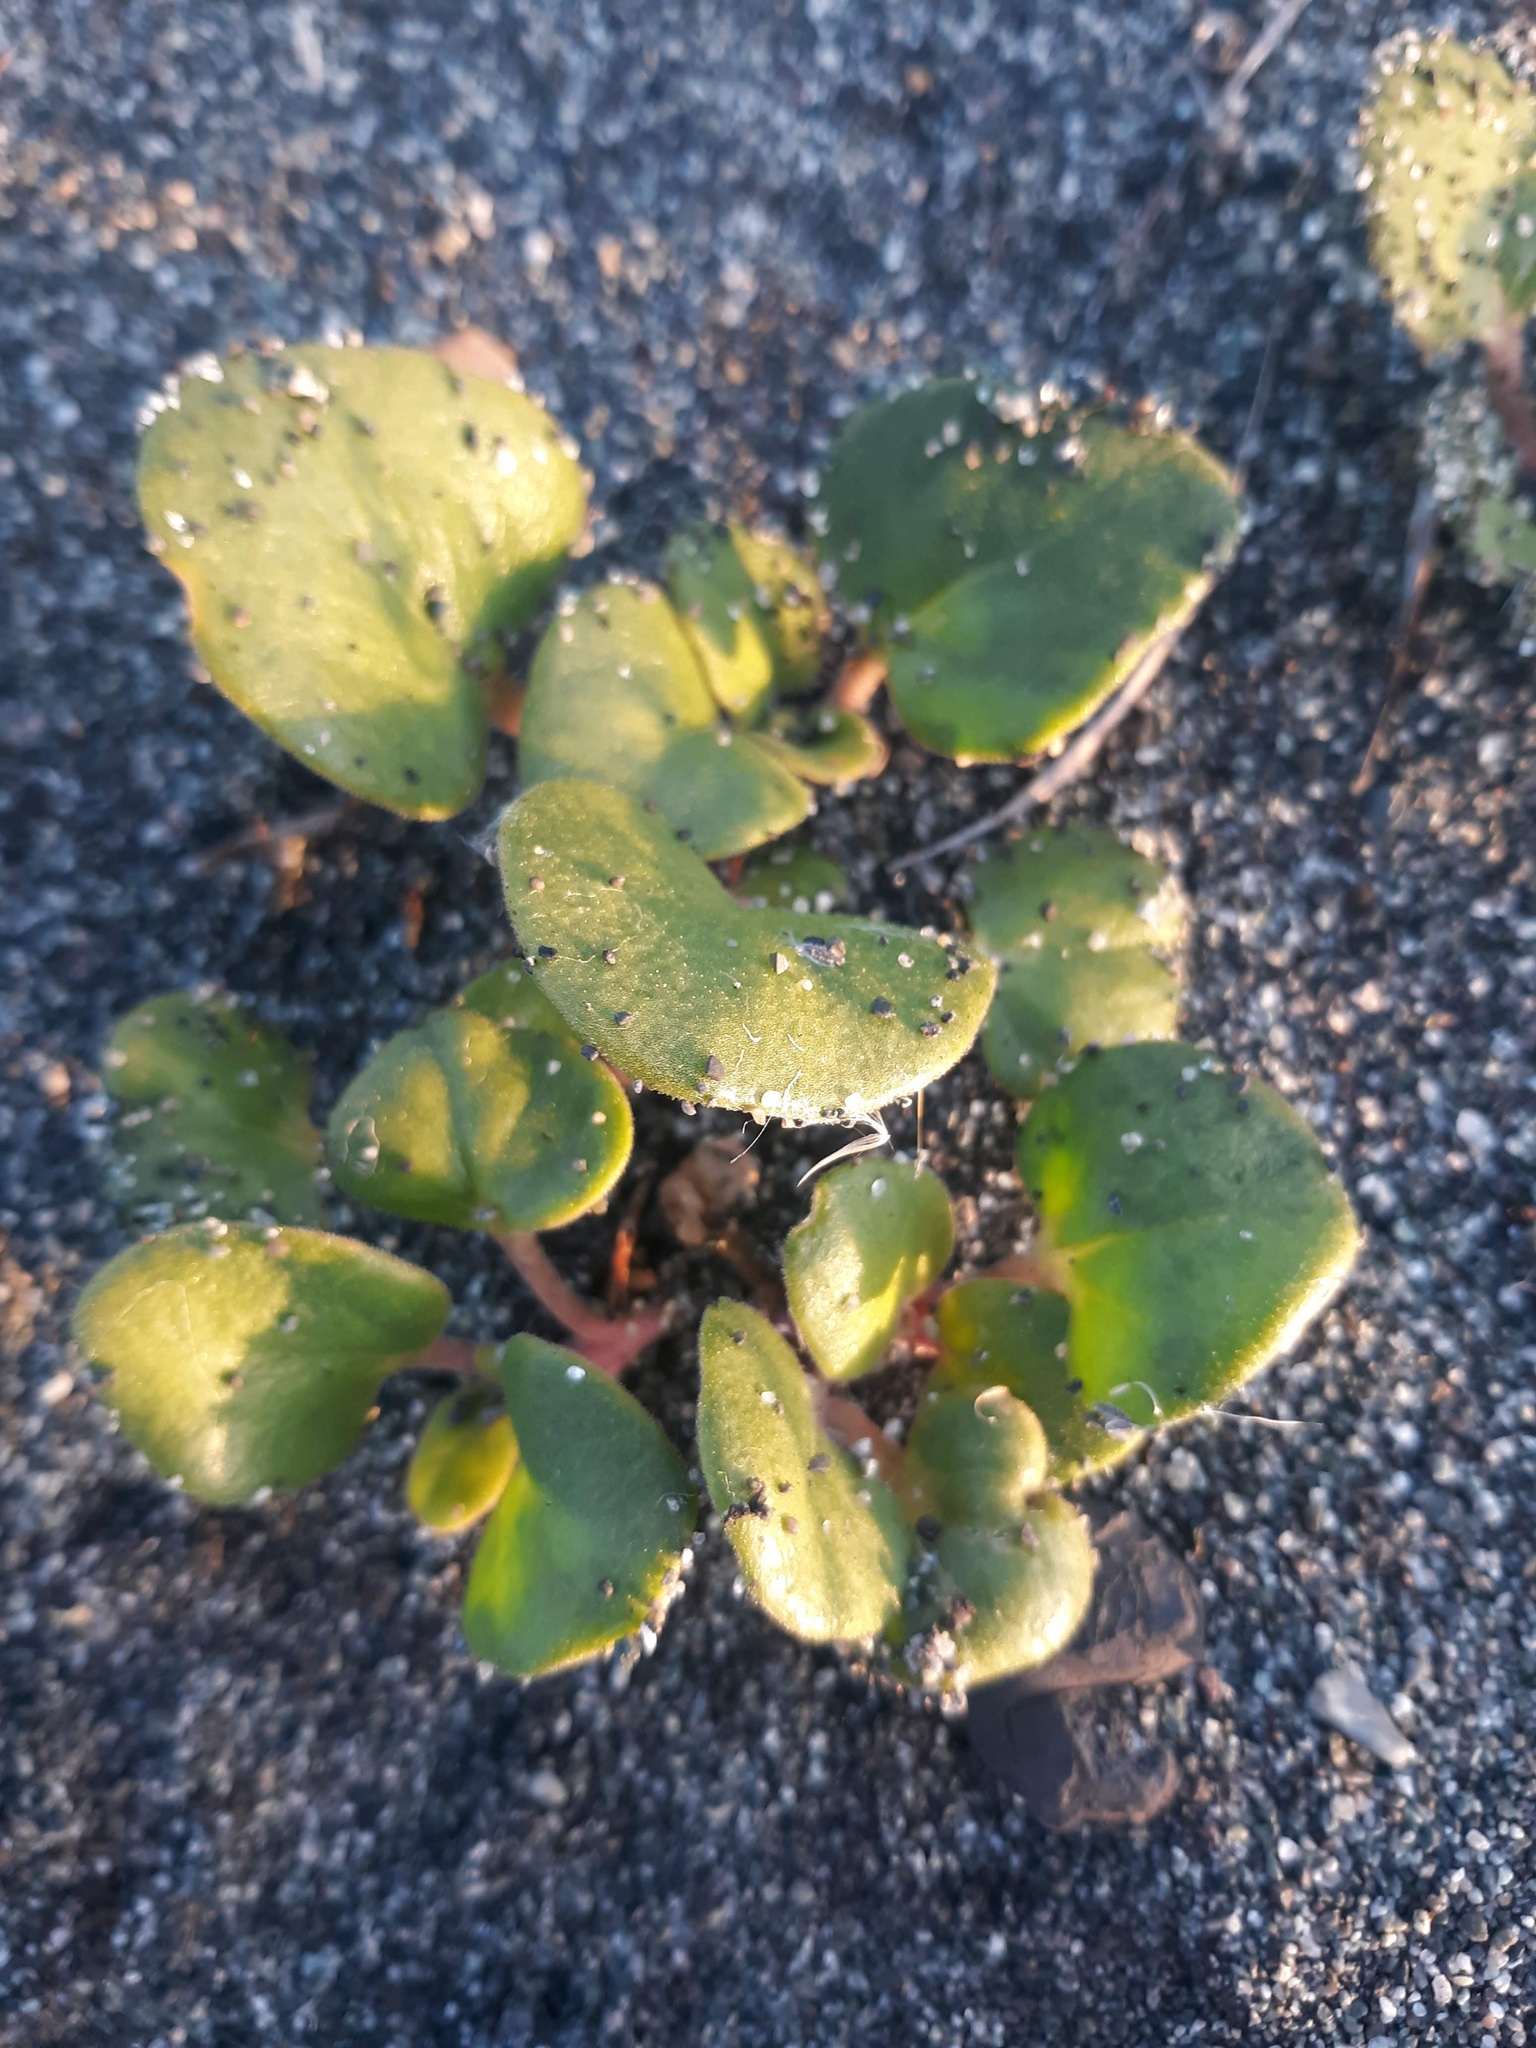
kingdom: Plantae
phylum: Tracheophyta
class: Magnoliopsida
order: Caryophyllales
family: Nyctaginaceae
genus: Abronia
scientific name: Abronia latifolia
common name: Yellow sand-verbena
